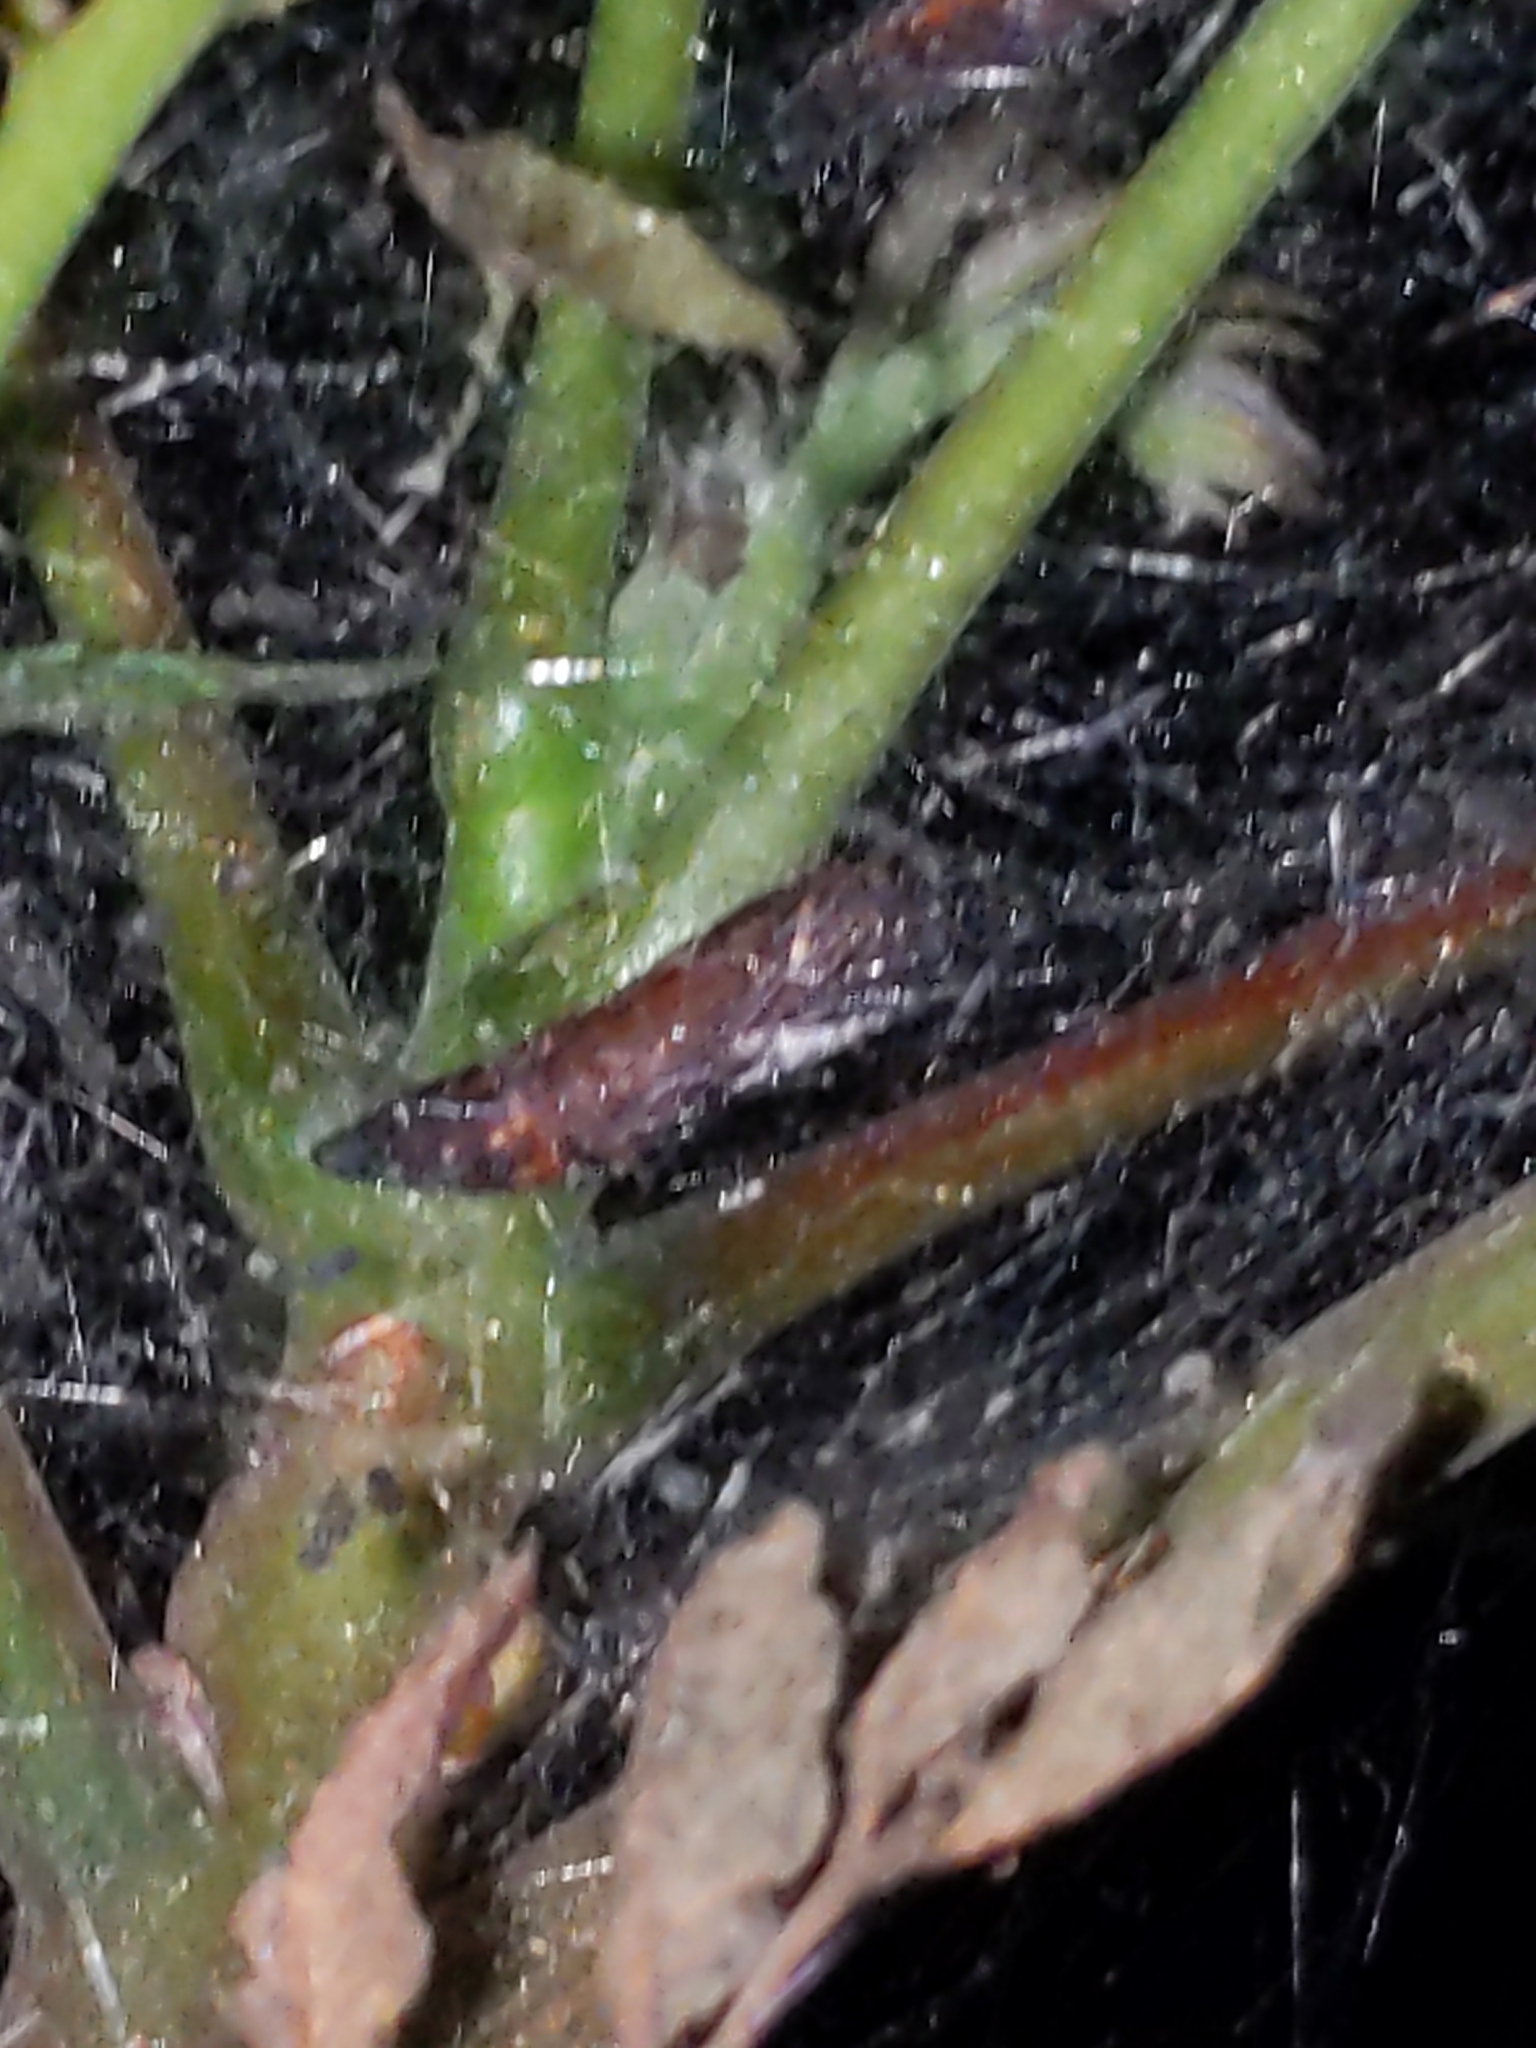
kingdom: Animalia
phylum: Arthropoda
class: Insecta
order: Lepidoptera
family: Attevidae
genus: Atteva
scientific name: Atteva punctella
